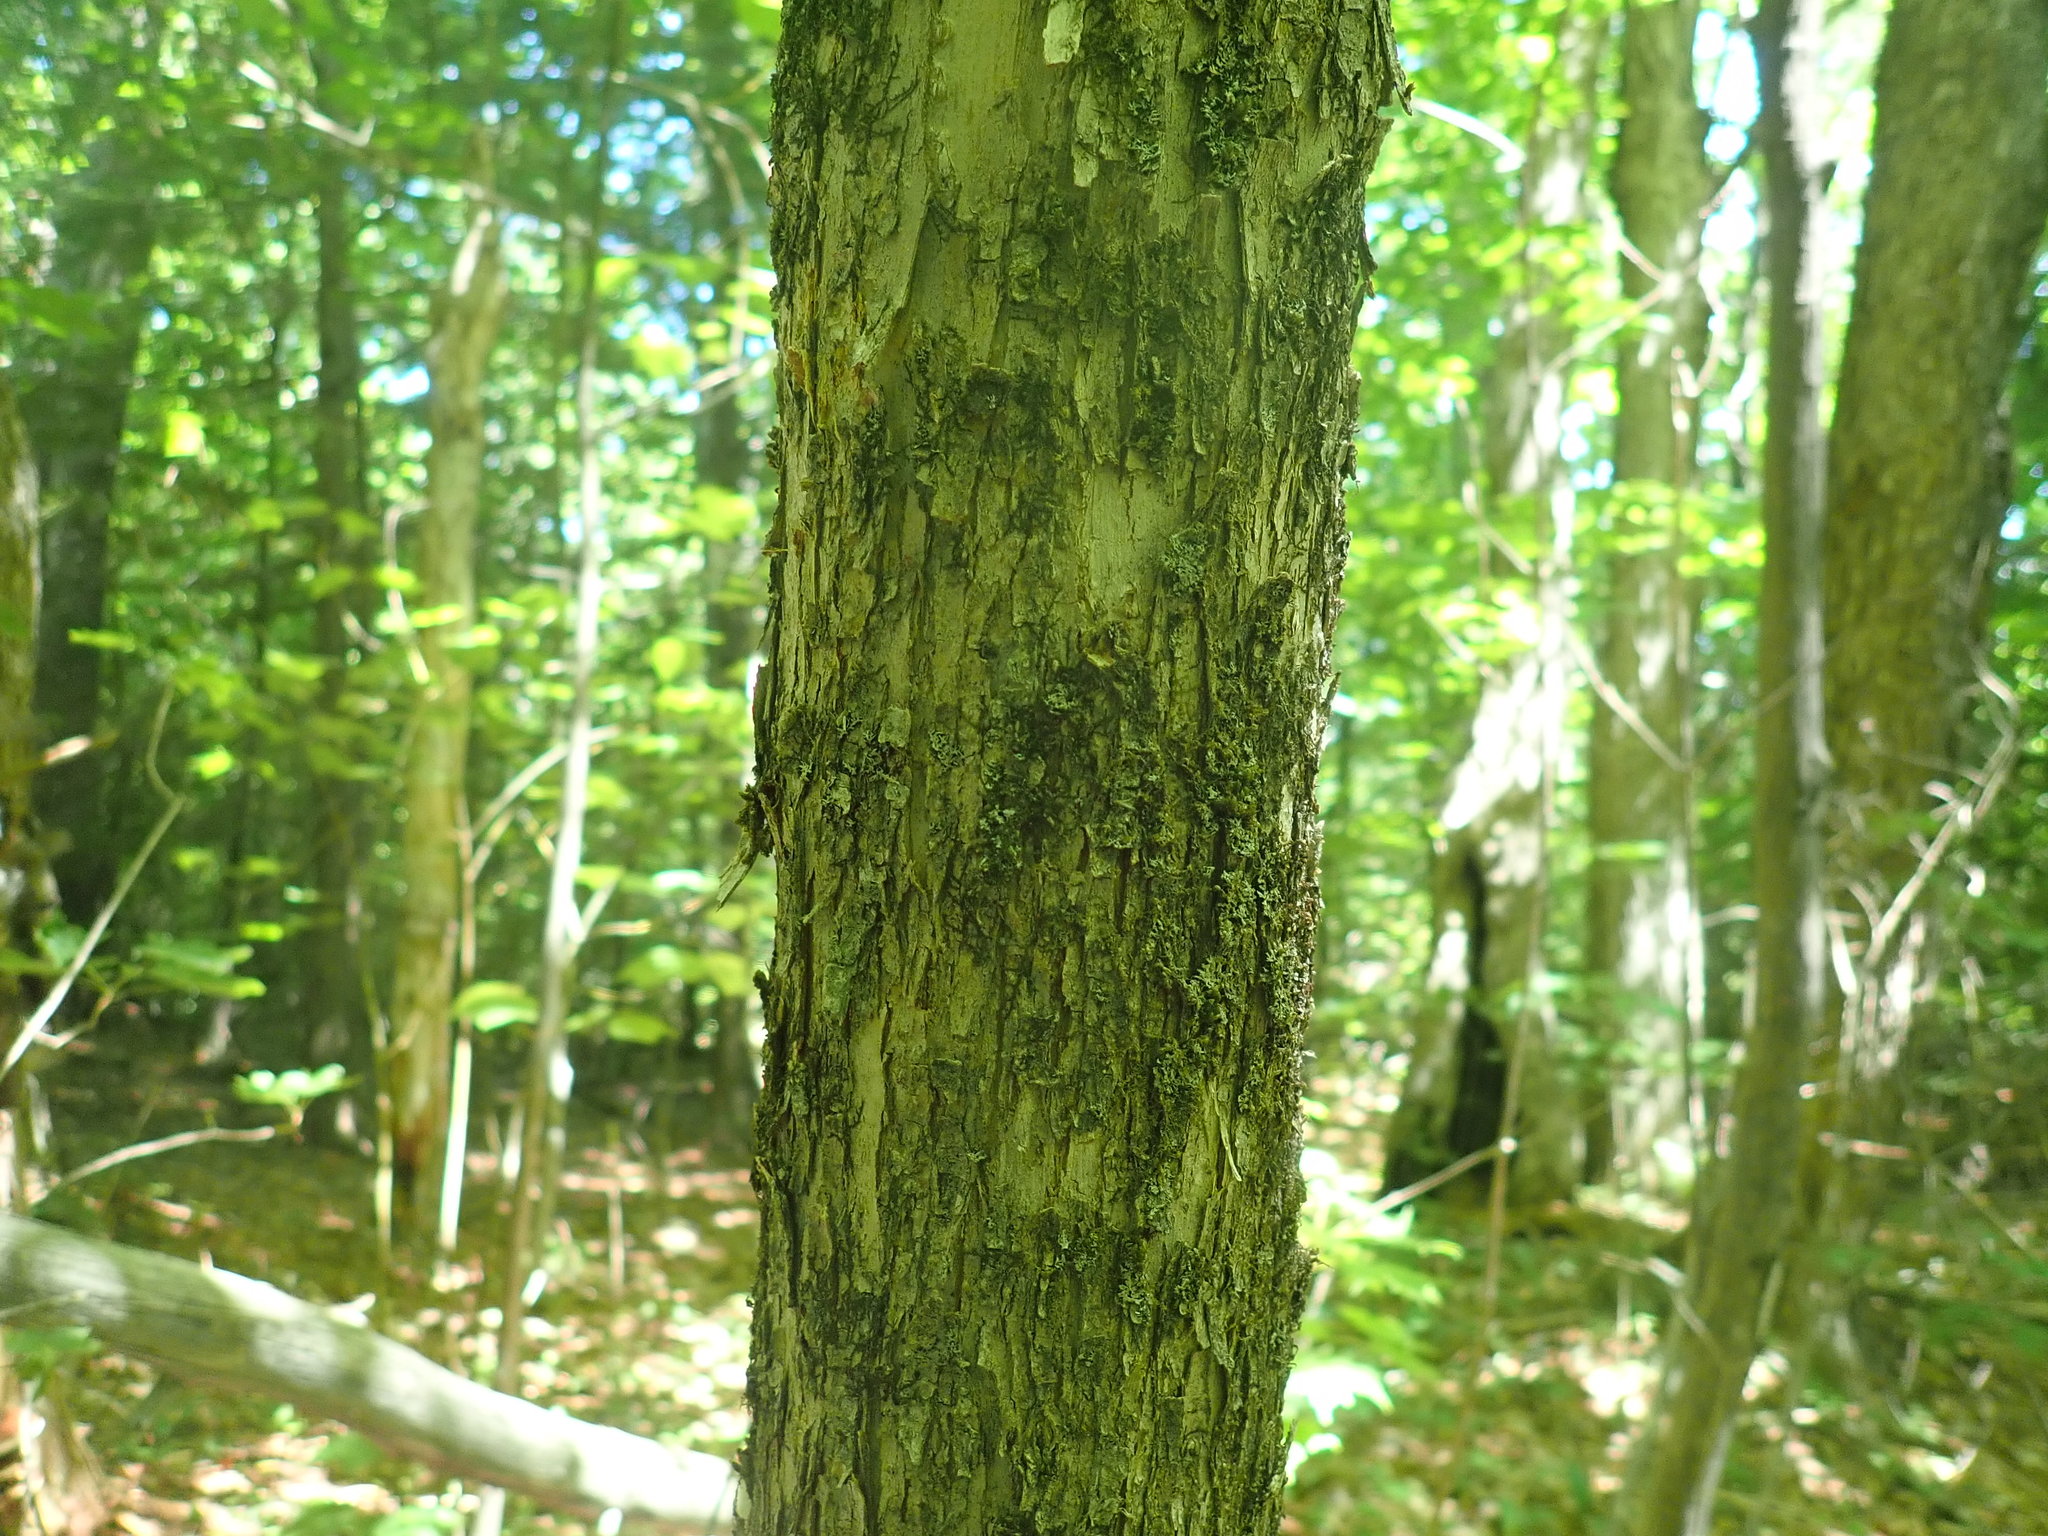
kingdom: Plantae
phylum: Tracheophyta
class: Magnoliopsida
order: Fagales
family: Betulaceae
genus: Ostrya
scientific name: Ostrya virginiana
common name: Ironwood
